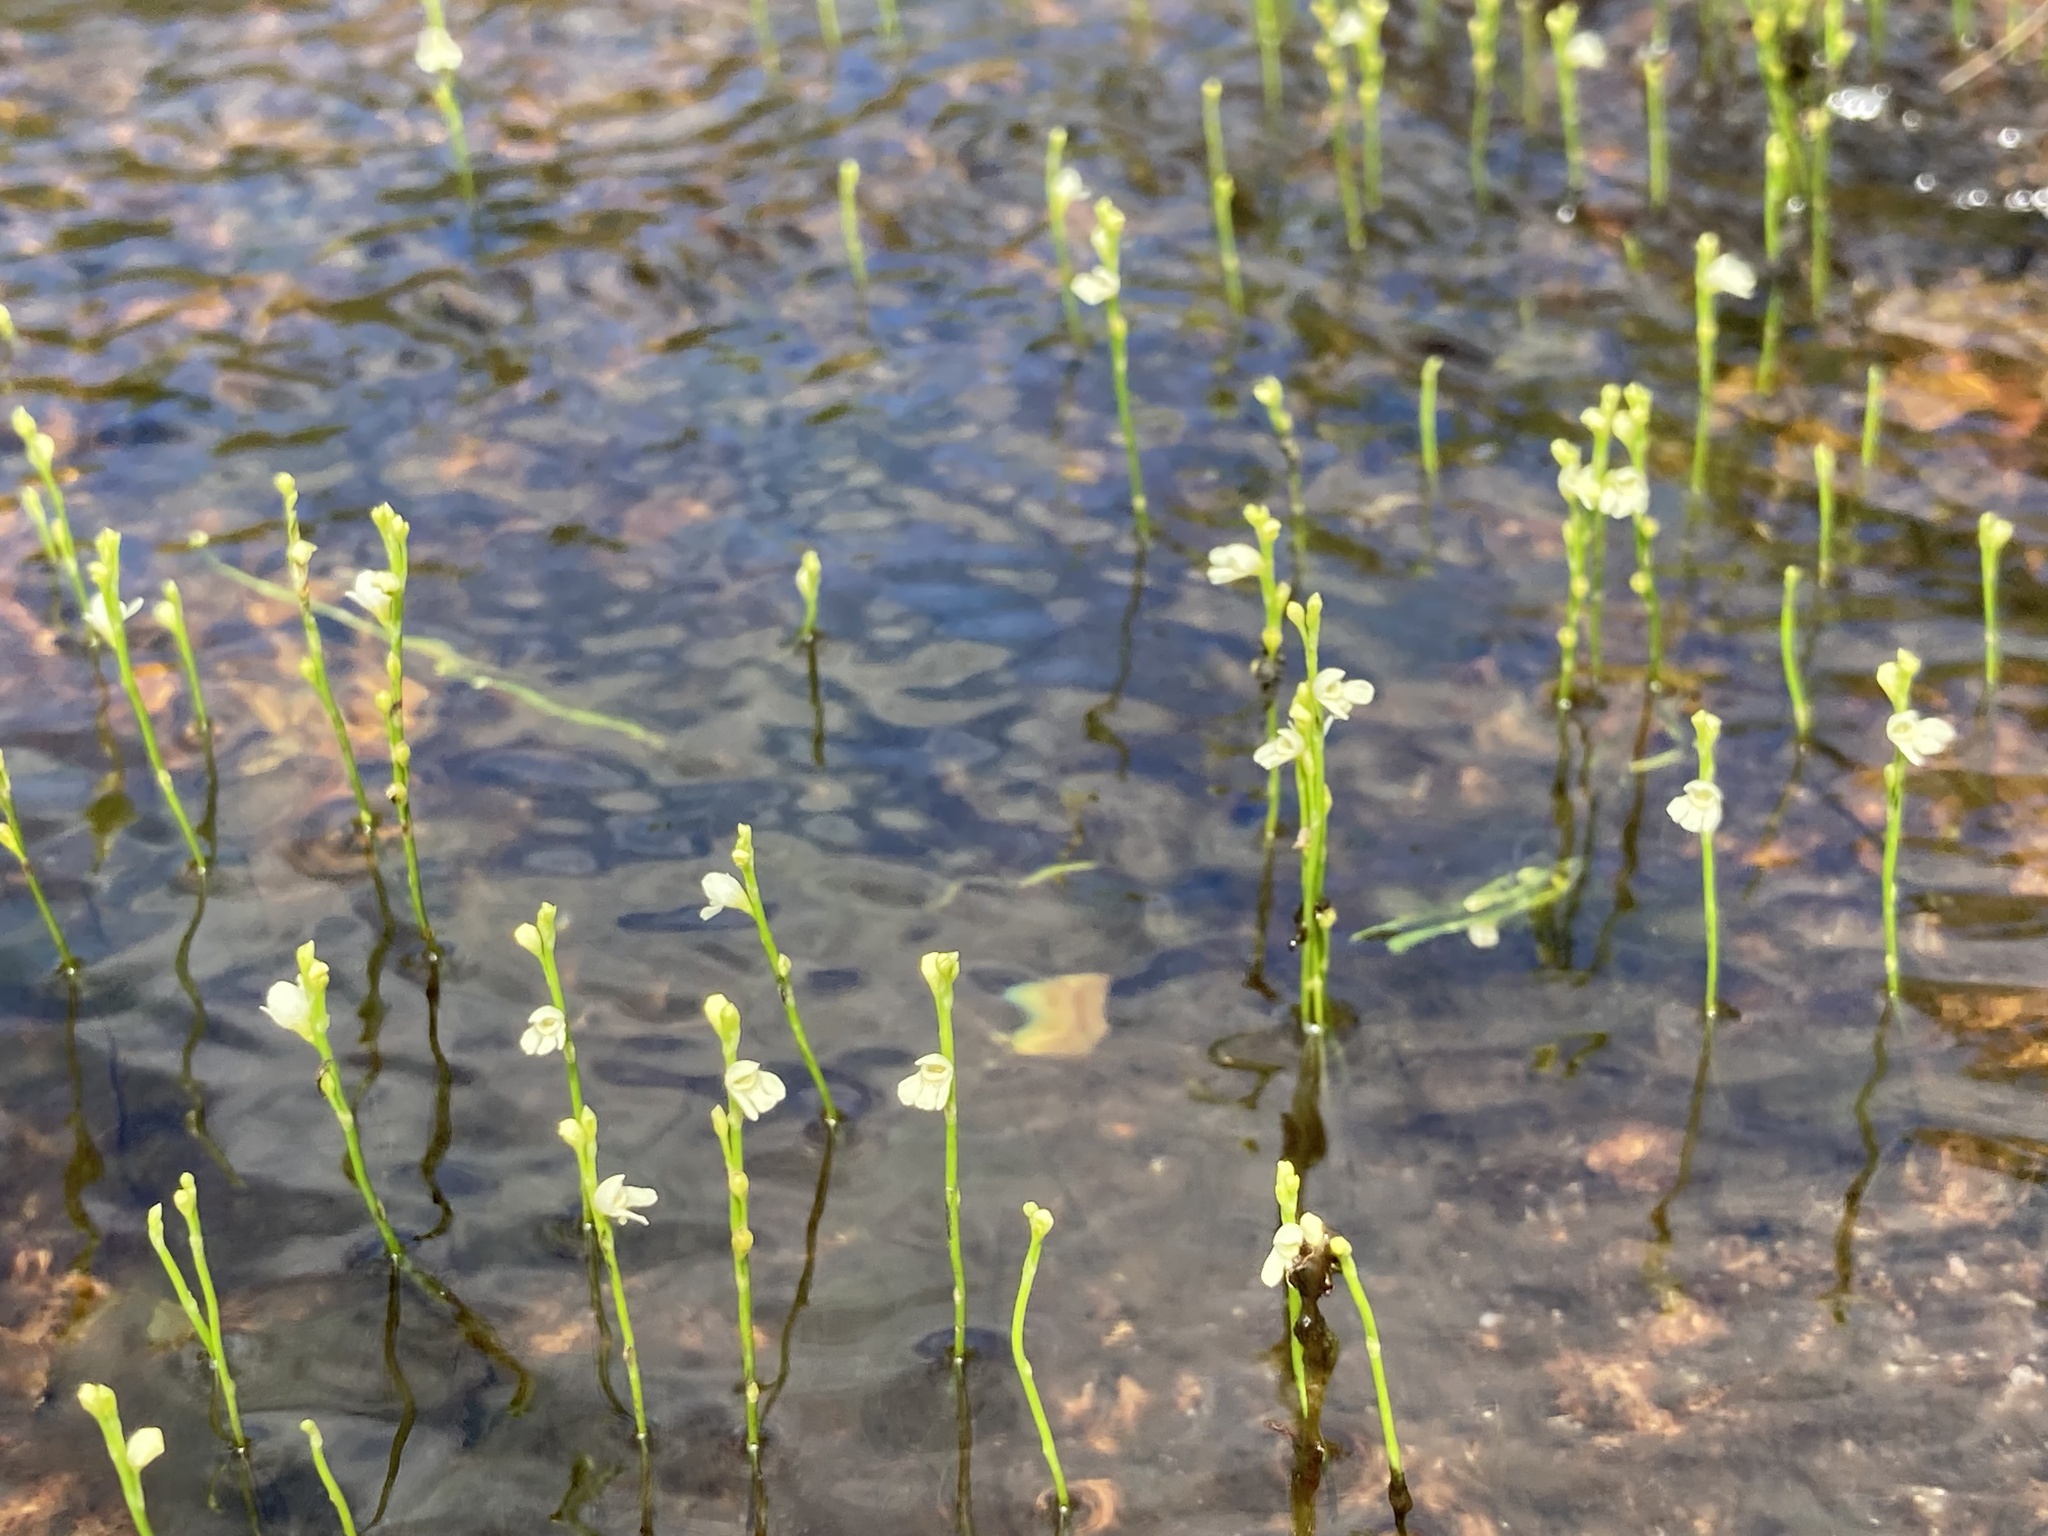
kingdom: Plantae
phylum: Tracheophyta
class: Magnoliopsida
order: Lamiales
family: Lentibulariaceae
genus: Utricularia
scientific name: Utricularia neottioides
